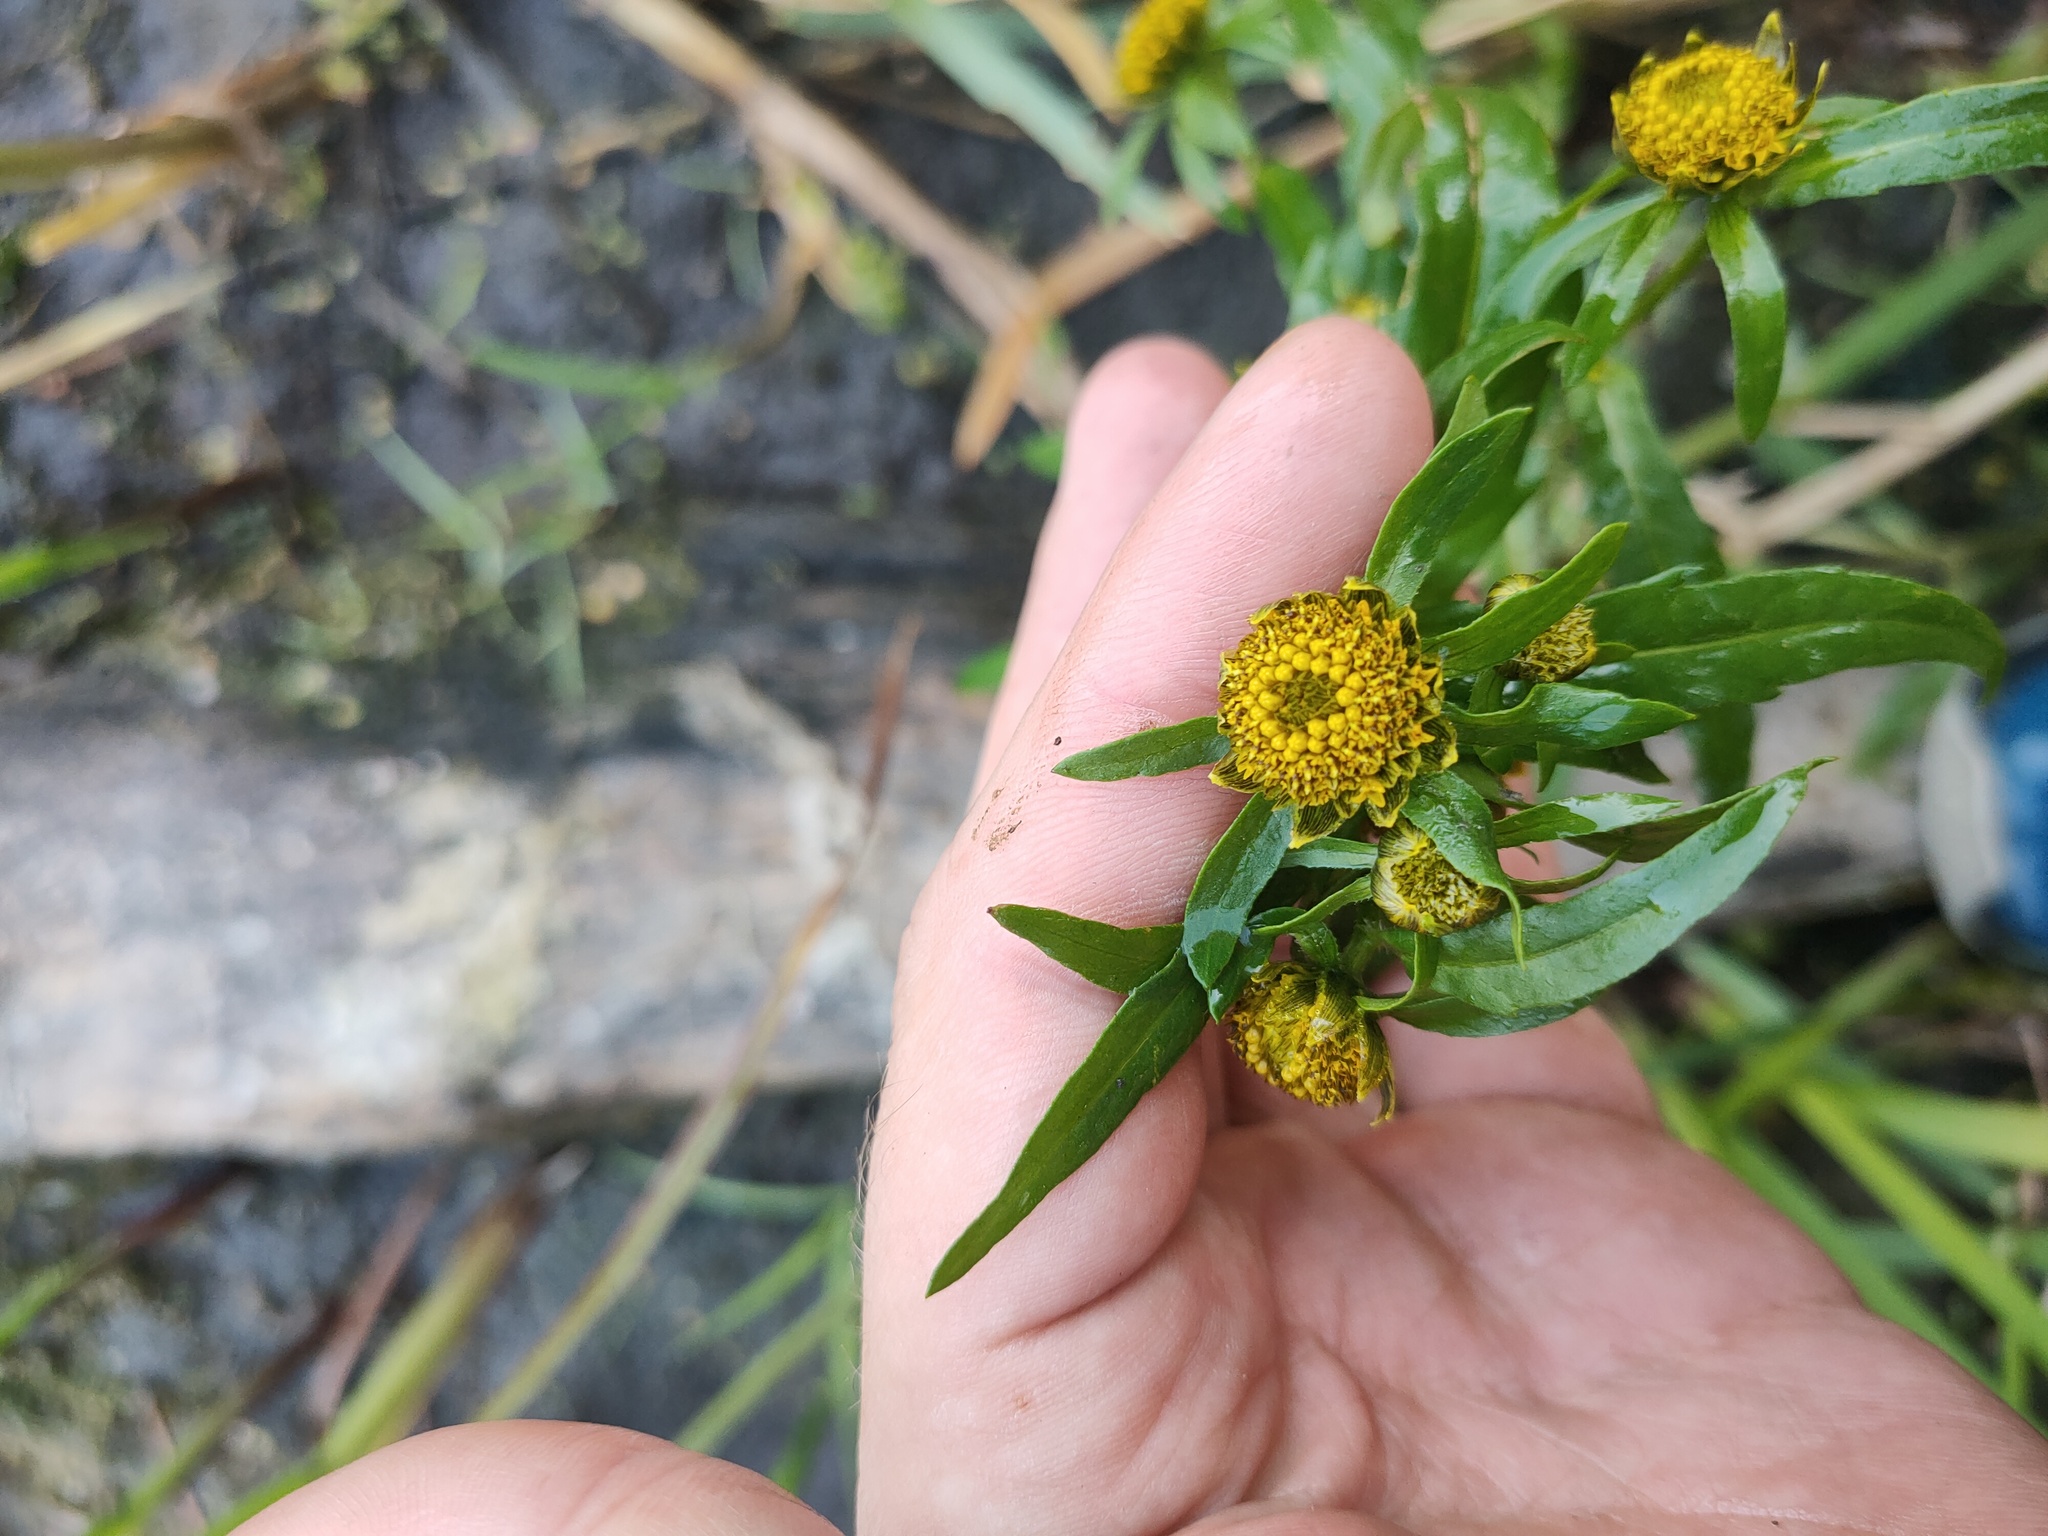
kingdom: Plantae
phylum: Tracheophyta
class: Magnoliopsida
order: Asterales
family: Asteraceae
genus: Bidens
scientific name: Bidens cernua
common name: Nodding bur-marigold
